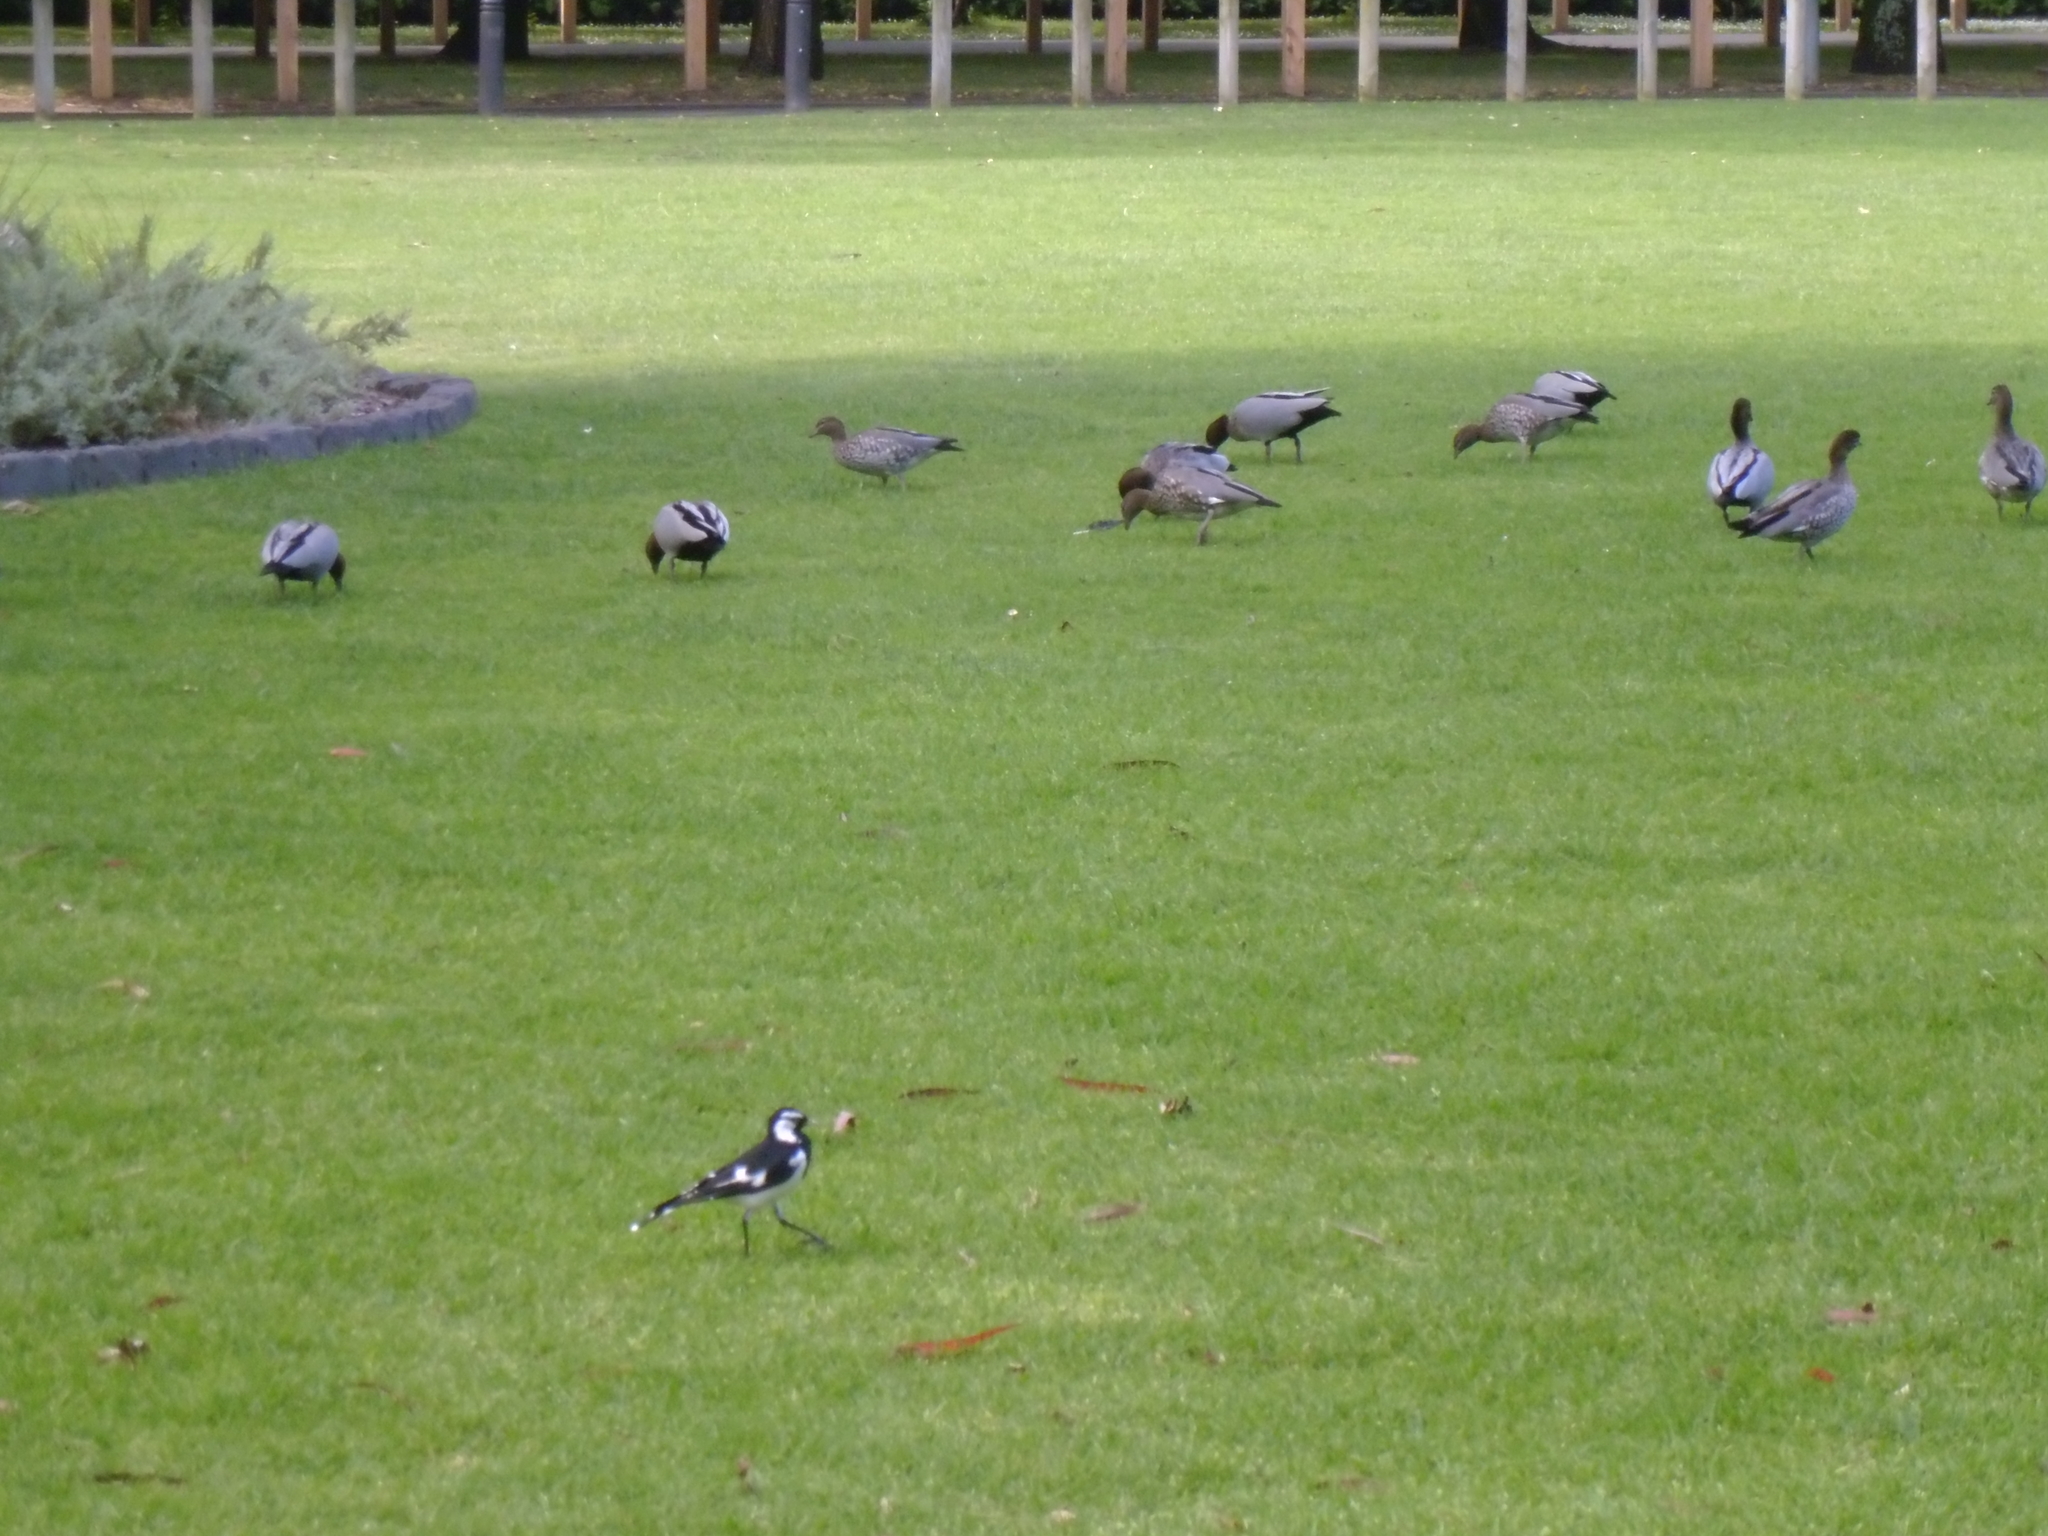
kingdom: Animalia
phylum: Chordata
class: Aves
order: Anseriformes
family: Anatidae
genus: Chenonetta
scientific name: Chenonetta jubata
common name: Maned duck
